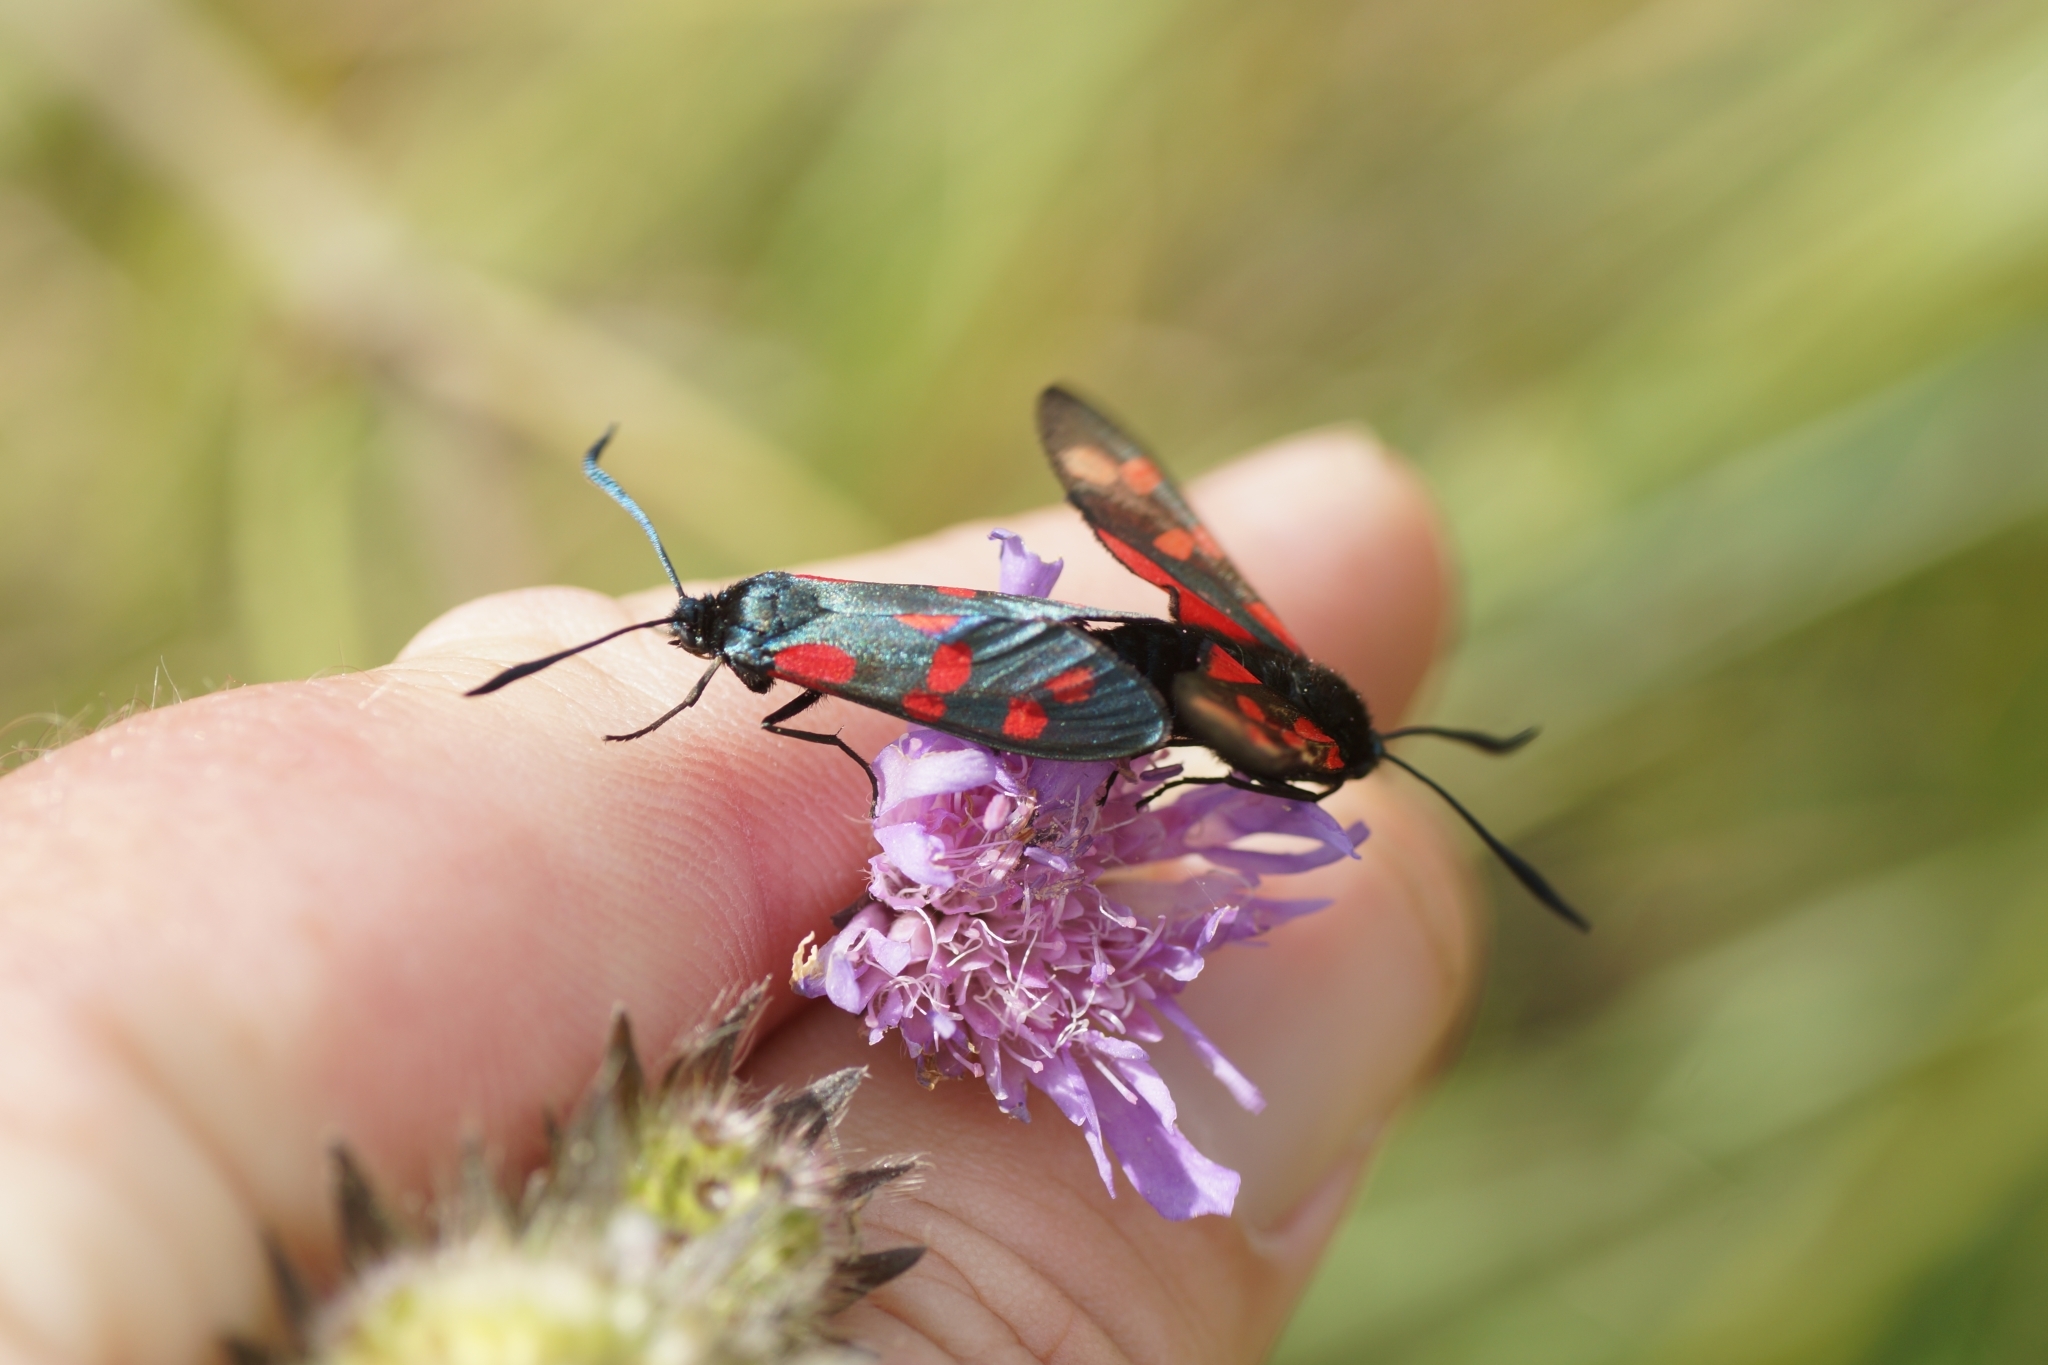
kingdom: Animalia
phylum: Arthropoda
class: Insecta
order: Lepidoptera
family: Zygaenidae
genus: Zygaena
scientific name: Zygaena filipendulae
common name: Six-spot burnet
